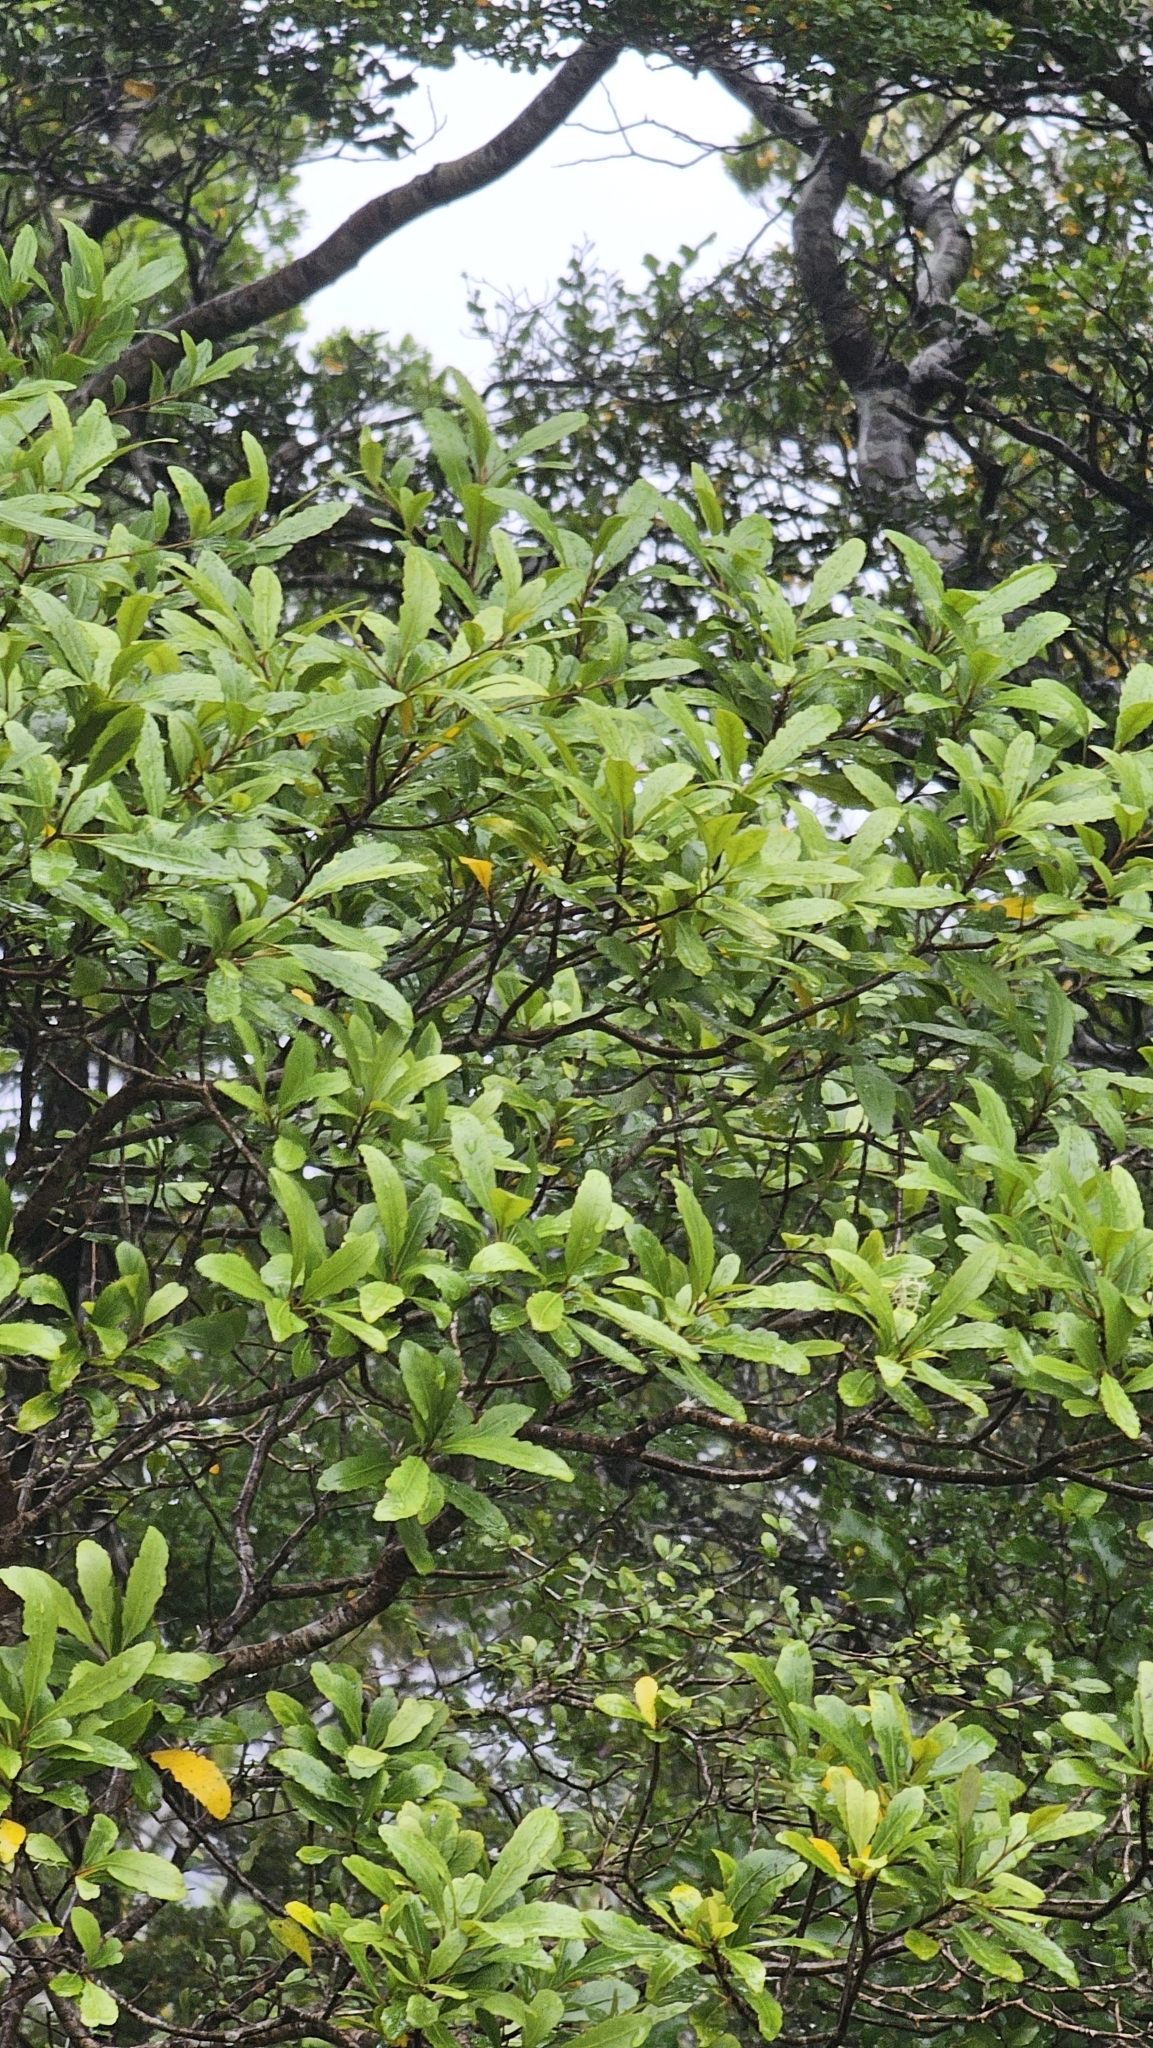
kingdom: Plantae
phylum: Tracheophyta
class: Magnoliopsida
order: Oxalidales
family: Elaeocarpaceae
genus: Elaeocarpus
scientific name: Elaeocarpus hookerianus
